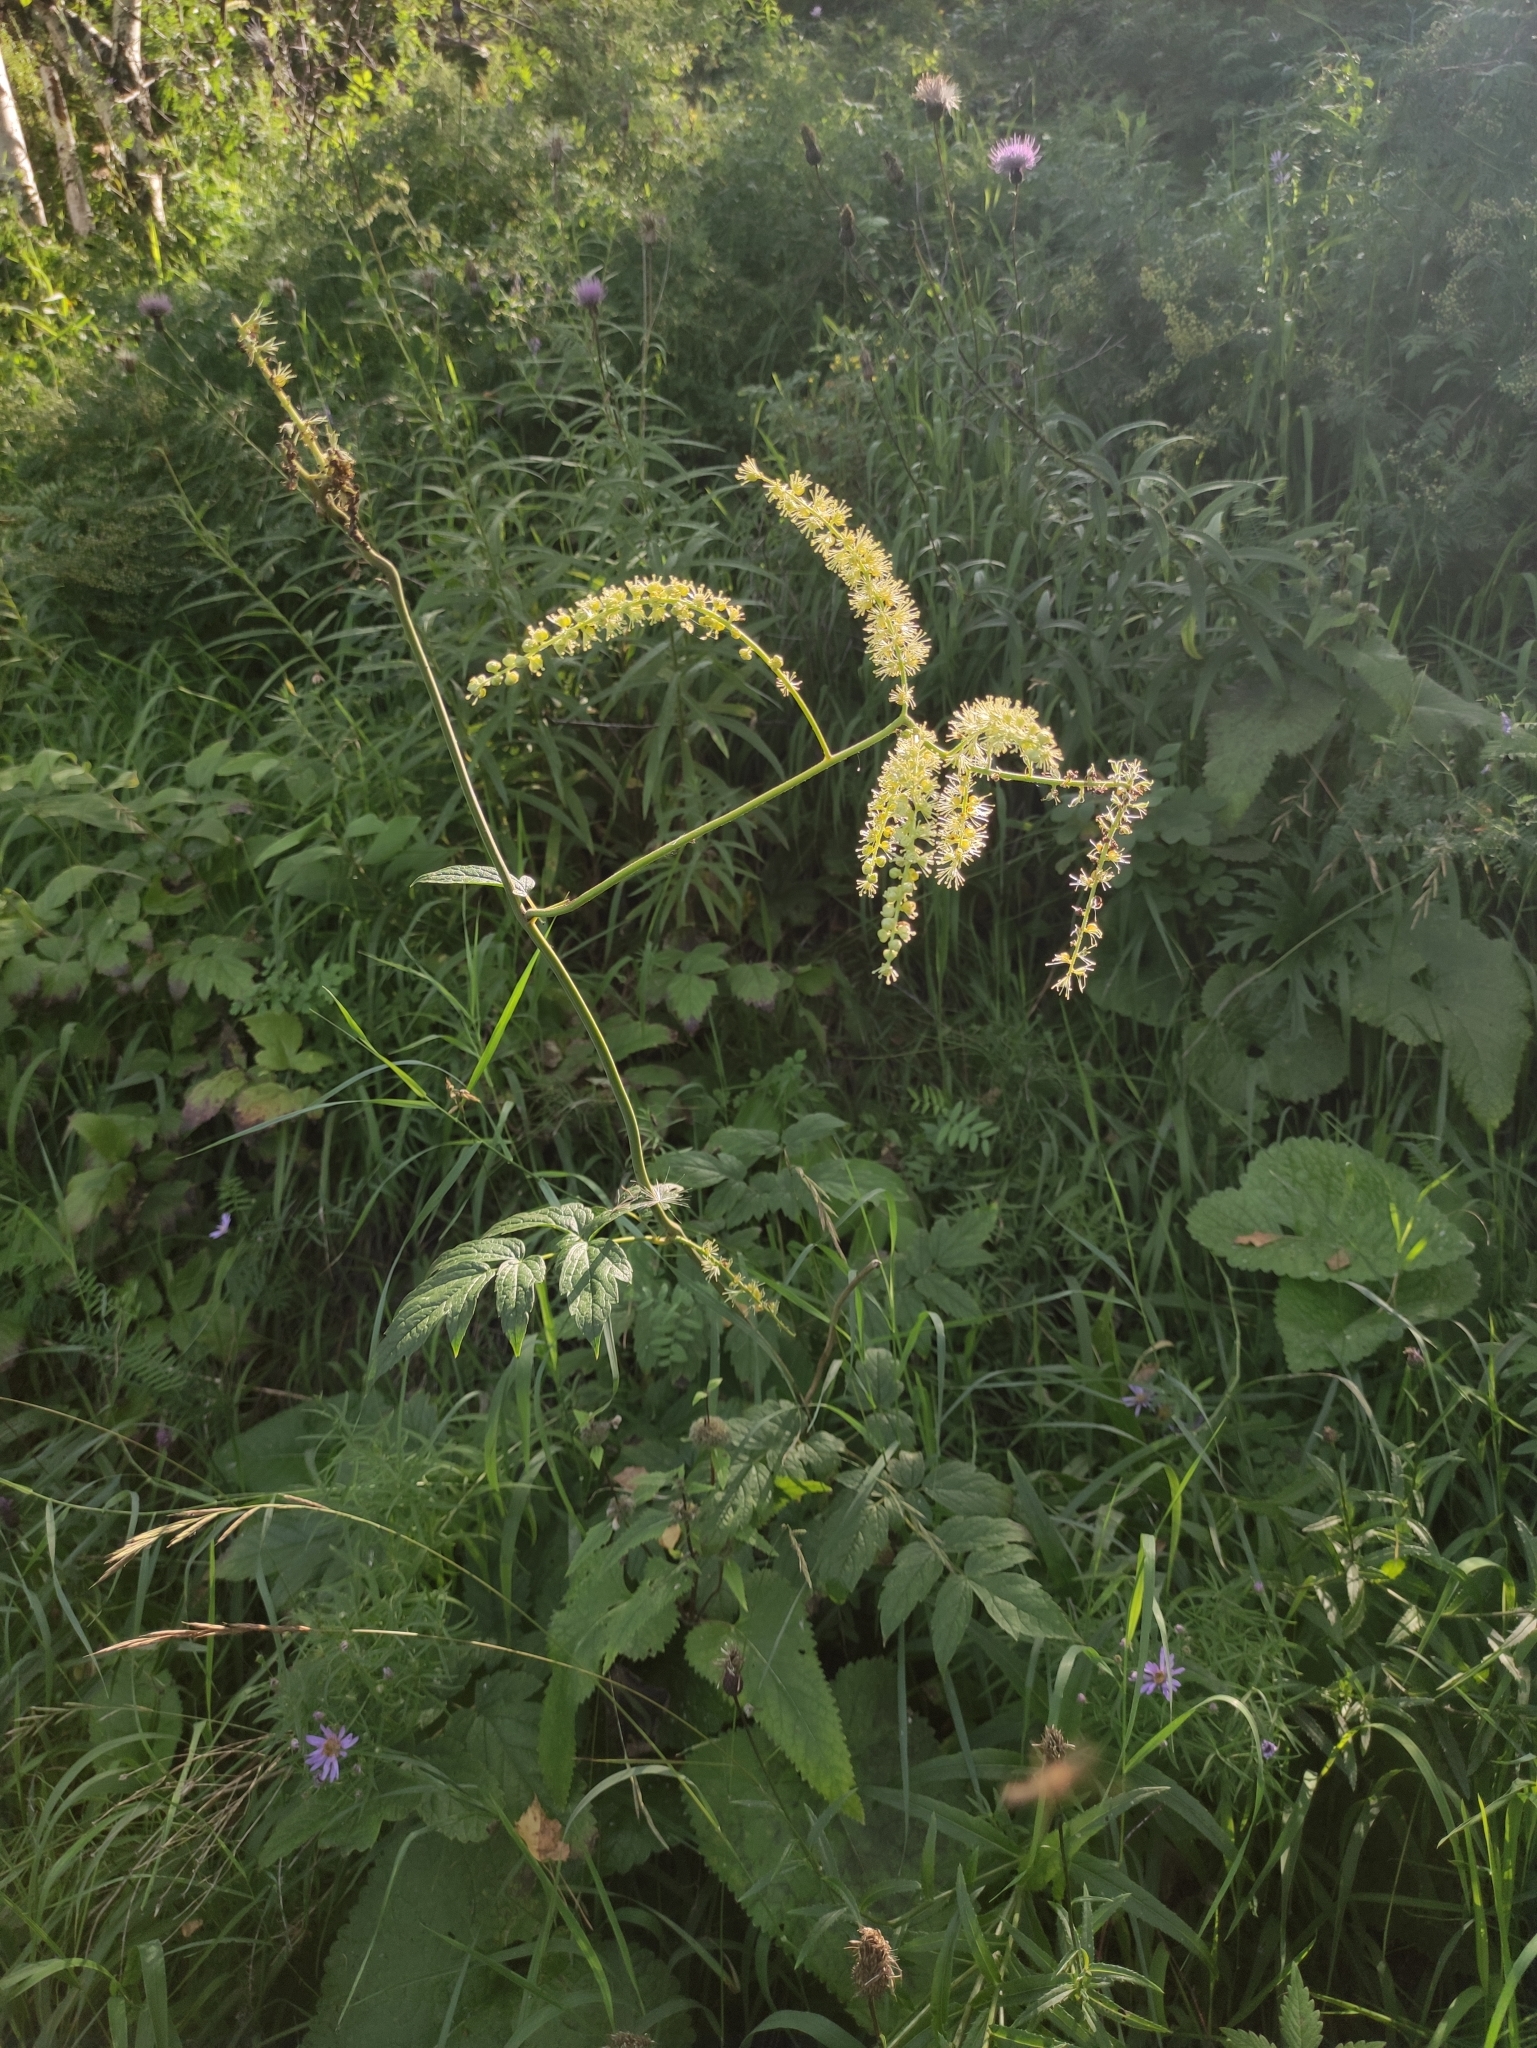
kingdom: Plantae
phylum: Tracheophyta
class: Magnoliopsida
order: Ranunculales
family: Ranunculaceae
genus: Actaea
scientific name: Actaea cimicifuga
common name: Chinese cimicifuga
